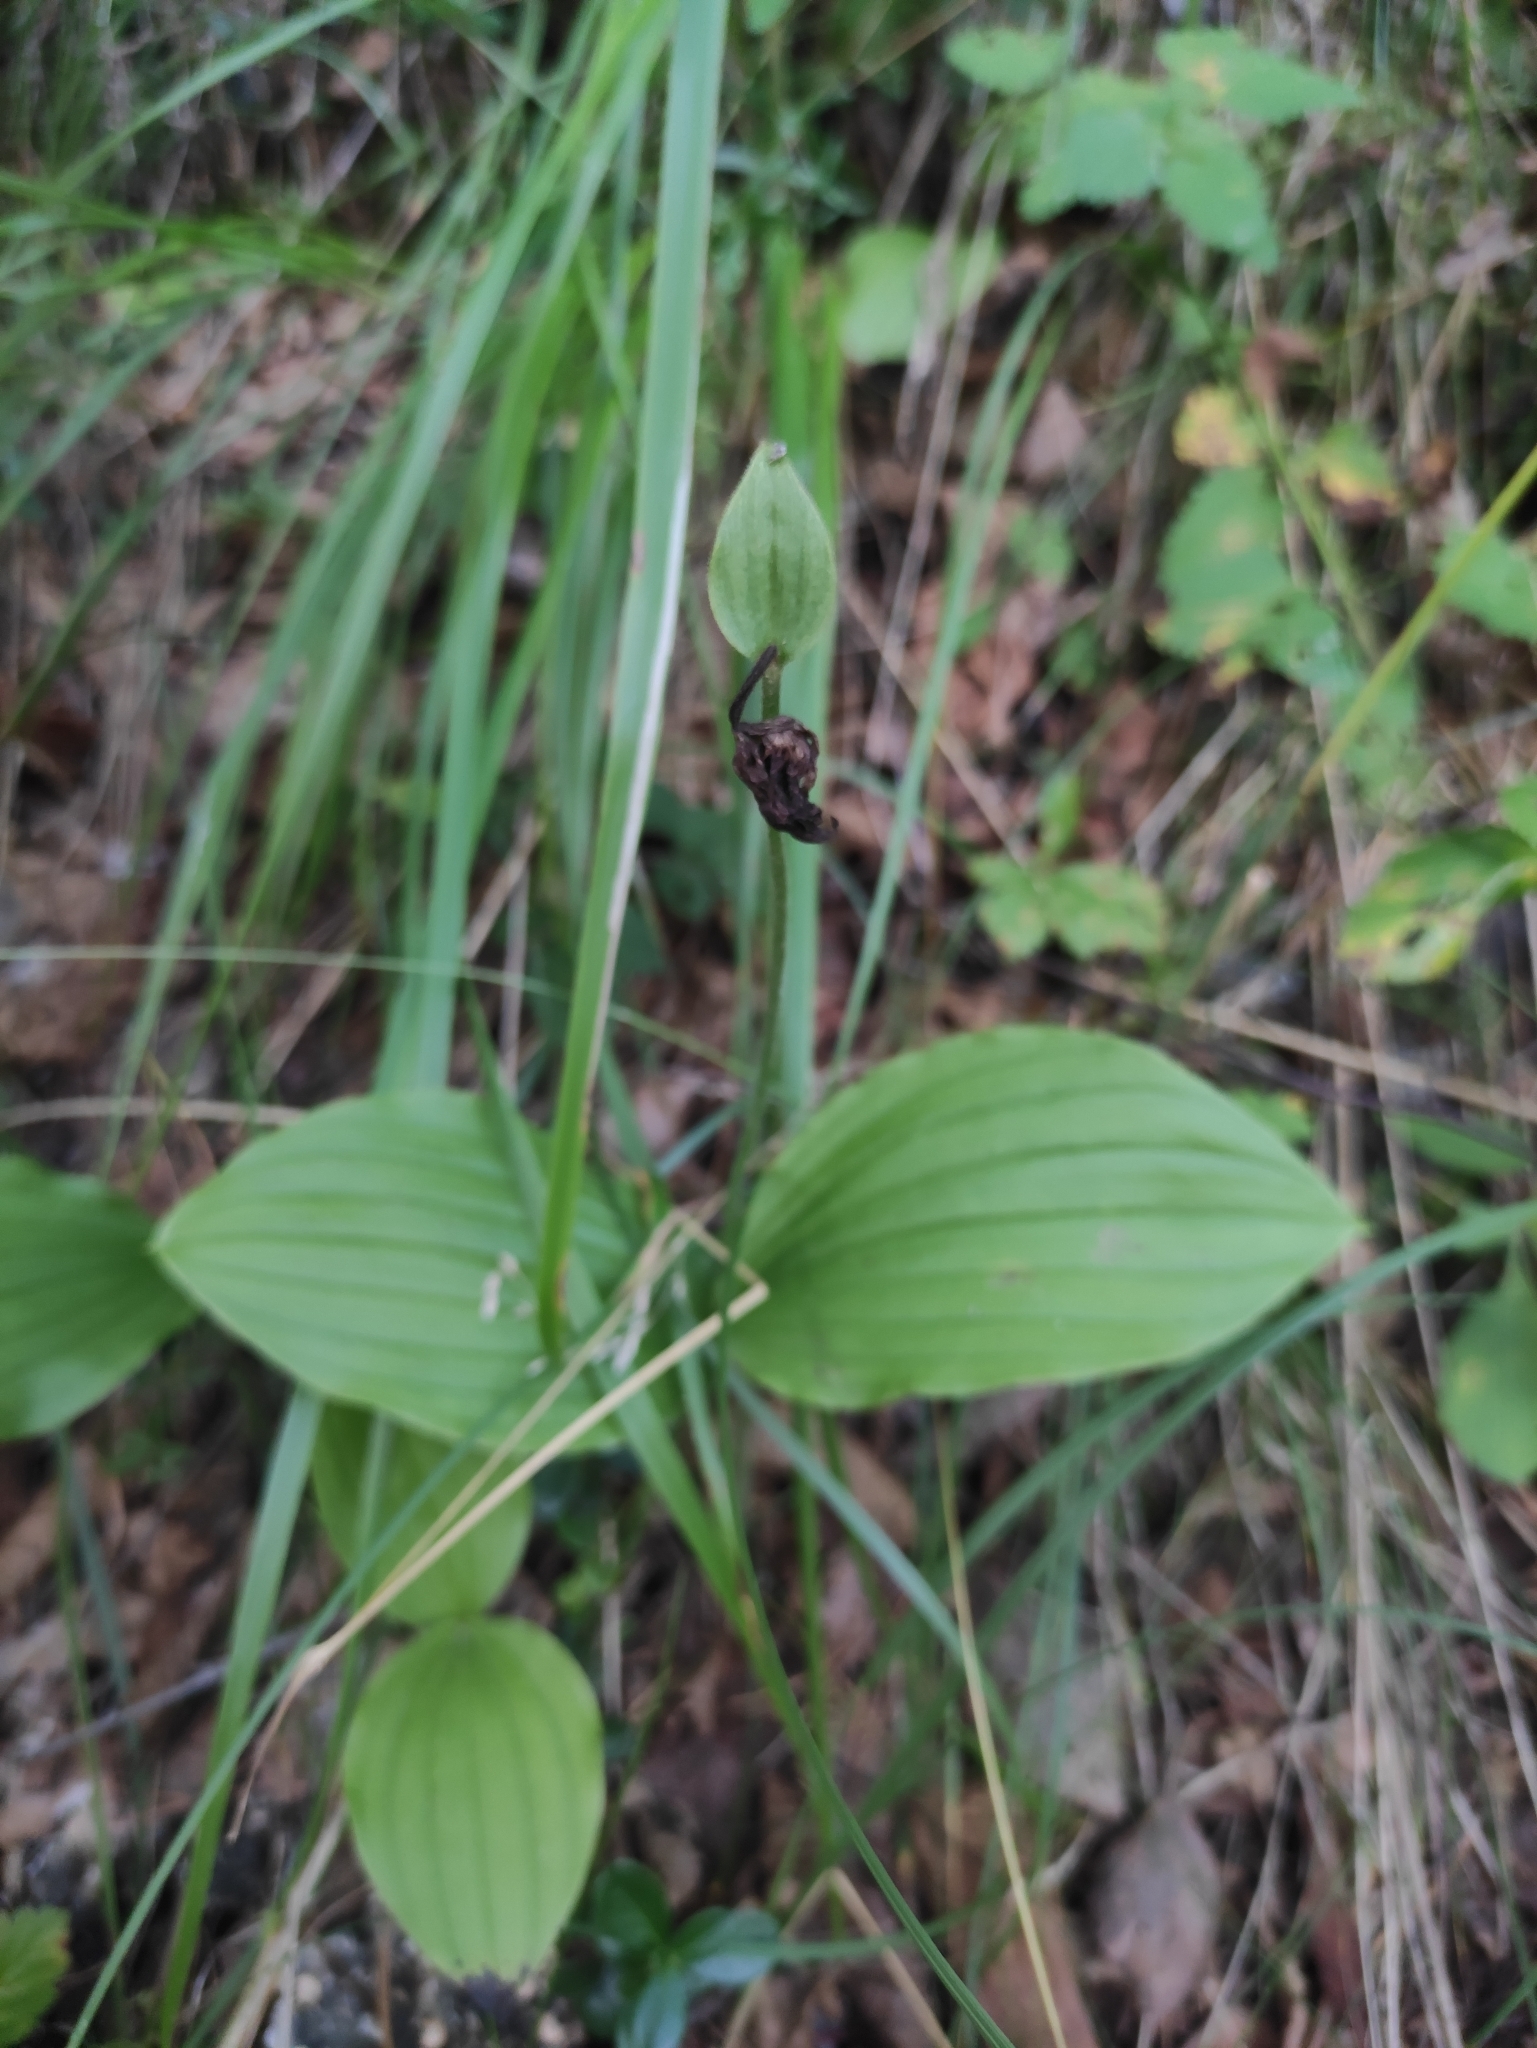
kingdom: Plantae
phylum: Tracheophyta
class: Liliopsida
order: Asparagales
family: Orchidaceae
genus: Cypripedium
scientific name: Cypripedium guttatum
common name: Pink lady slipper
